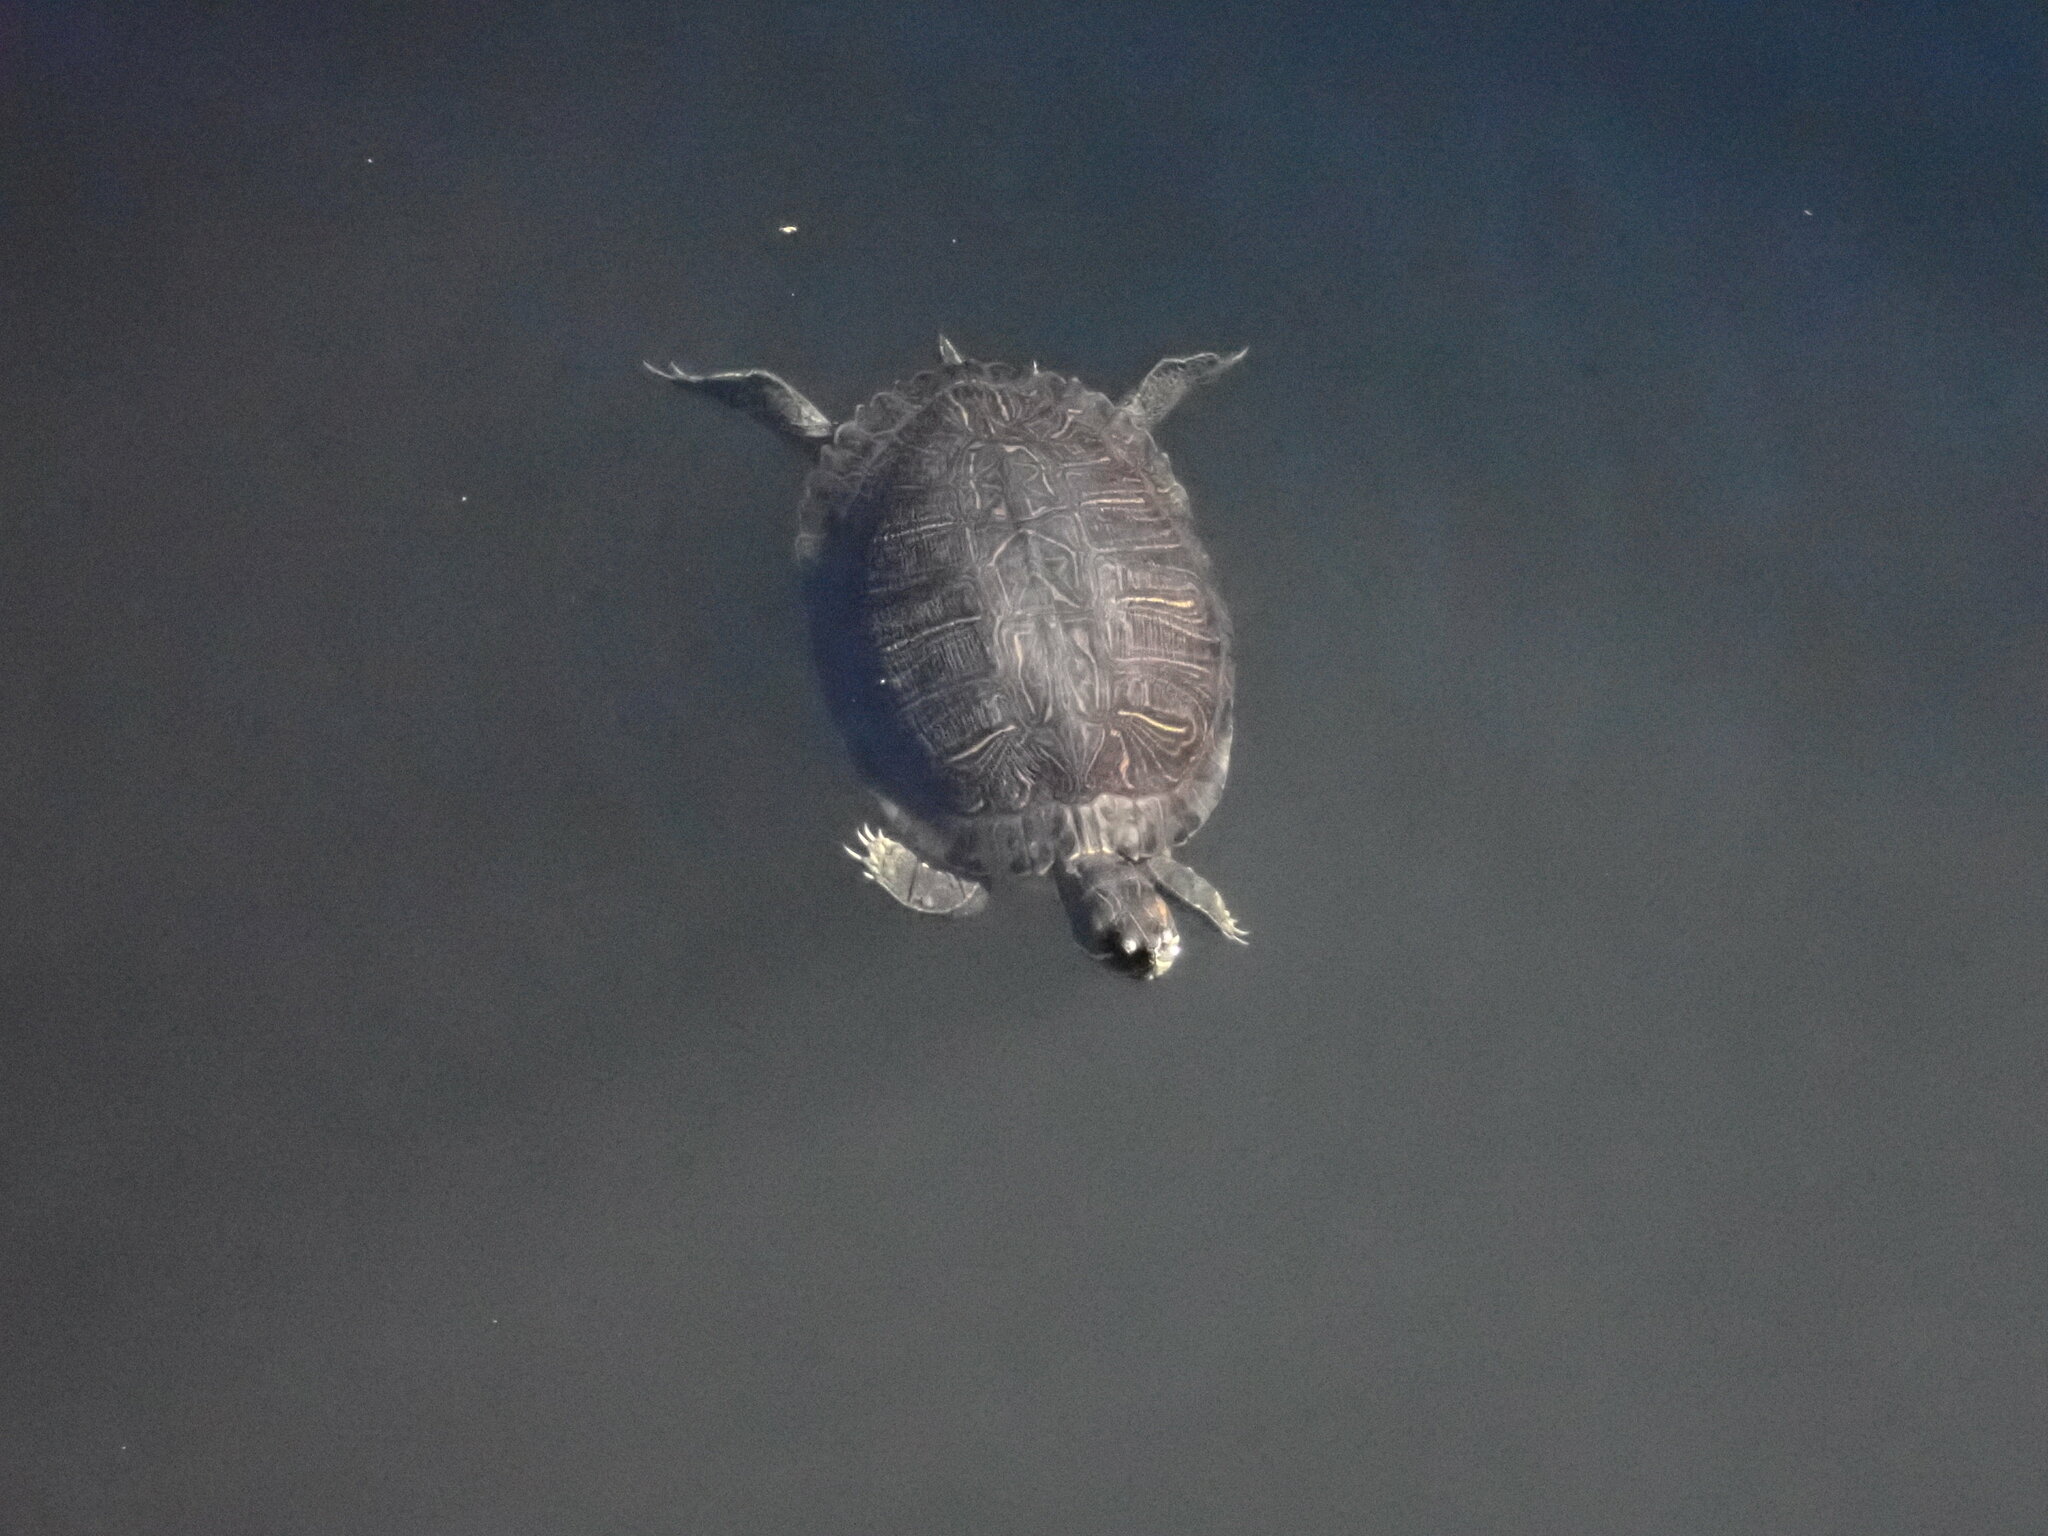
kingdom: Animalia
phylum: Chordata
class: Testudines
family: Emydidae
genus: Trachemys
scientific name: Trachemys scripta
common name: Slider
